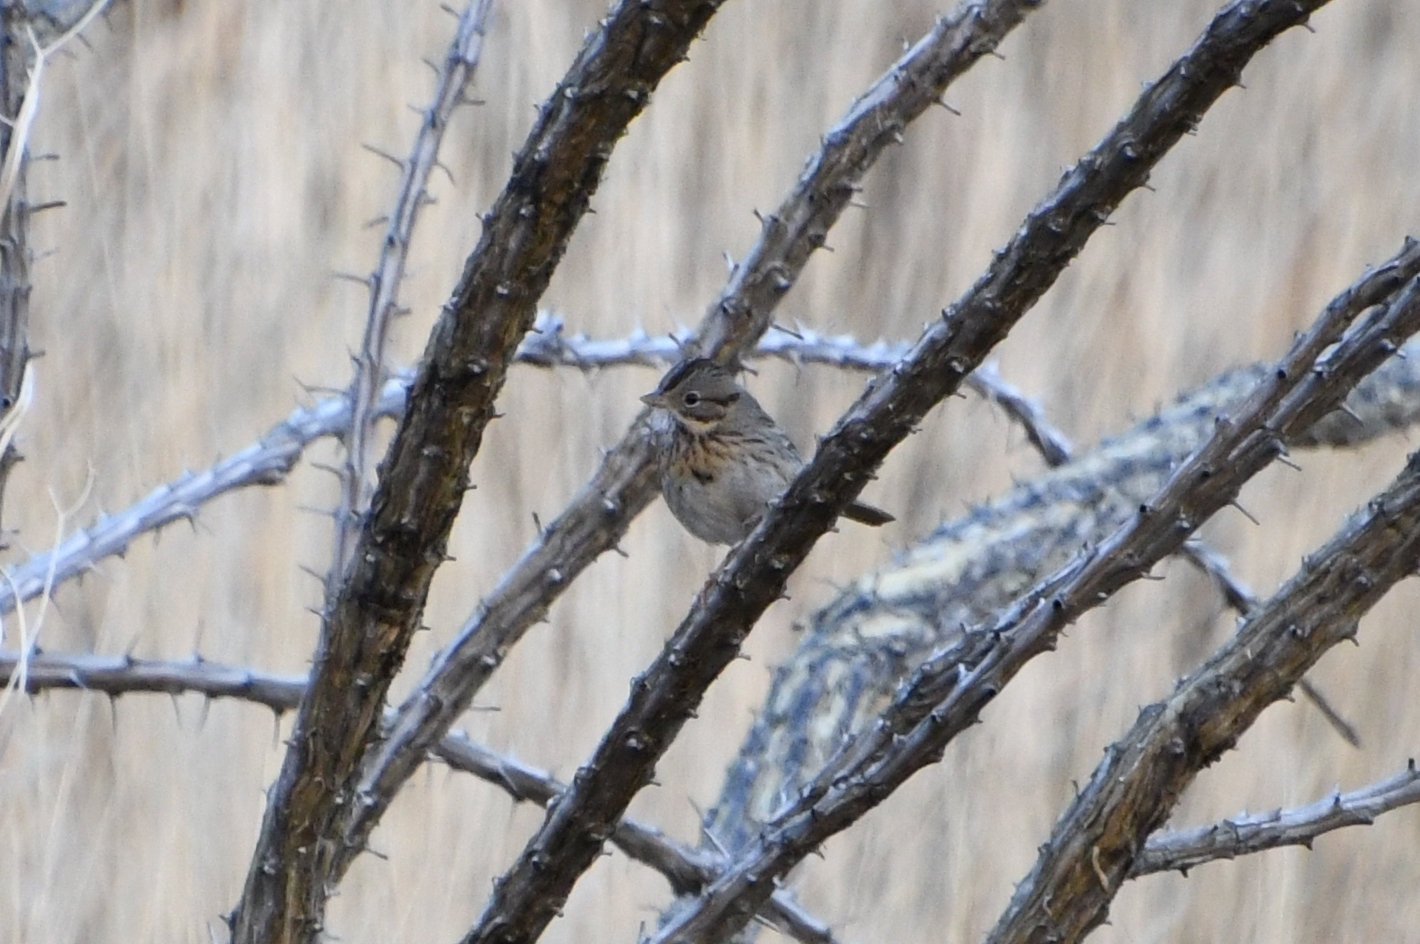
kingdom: Animalia
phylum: Chordata
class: Aves
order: Passeriformes
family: Passerellidae
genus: Melospiza
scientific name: Melospiza lincolnii
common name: Lincoln's sparrow
